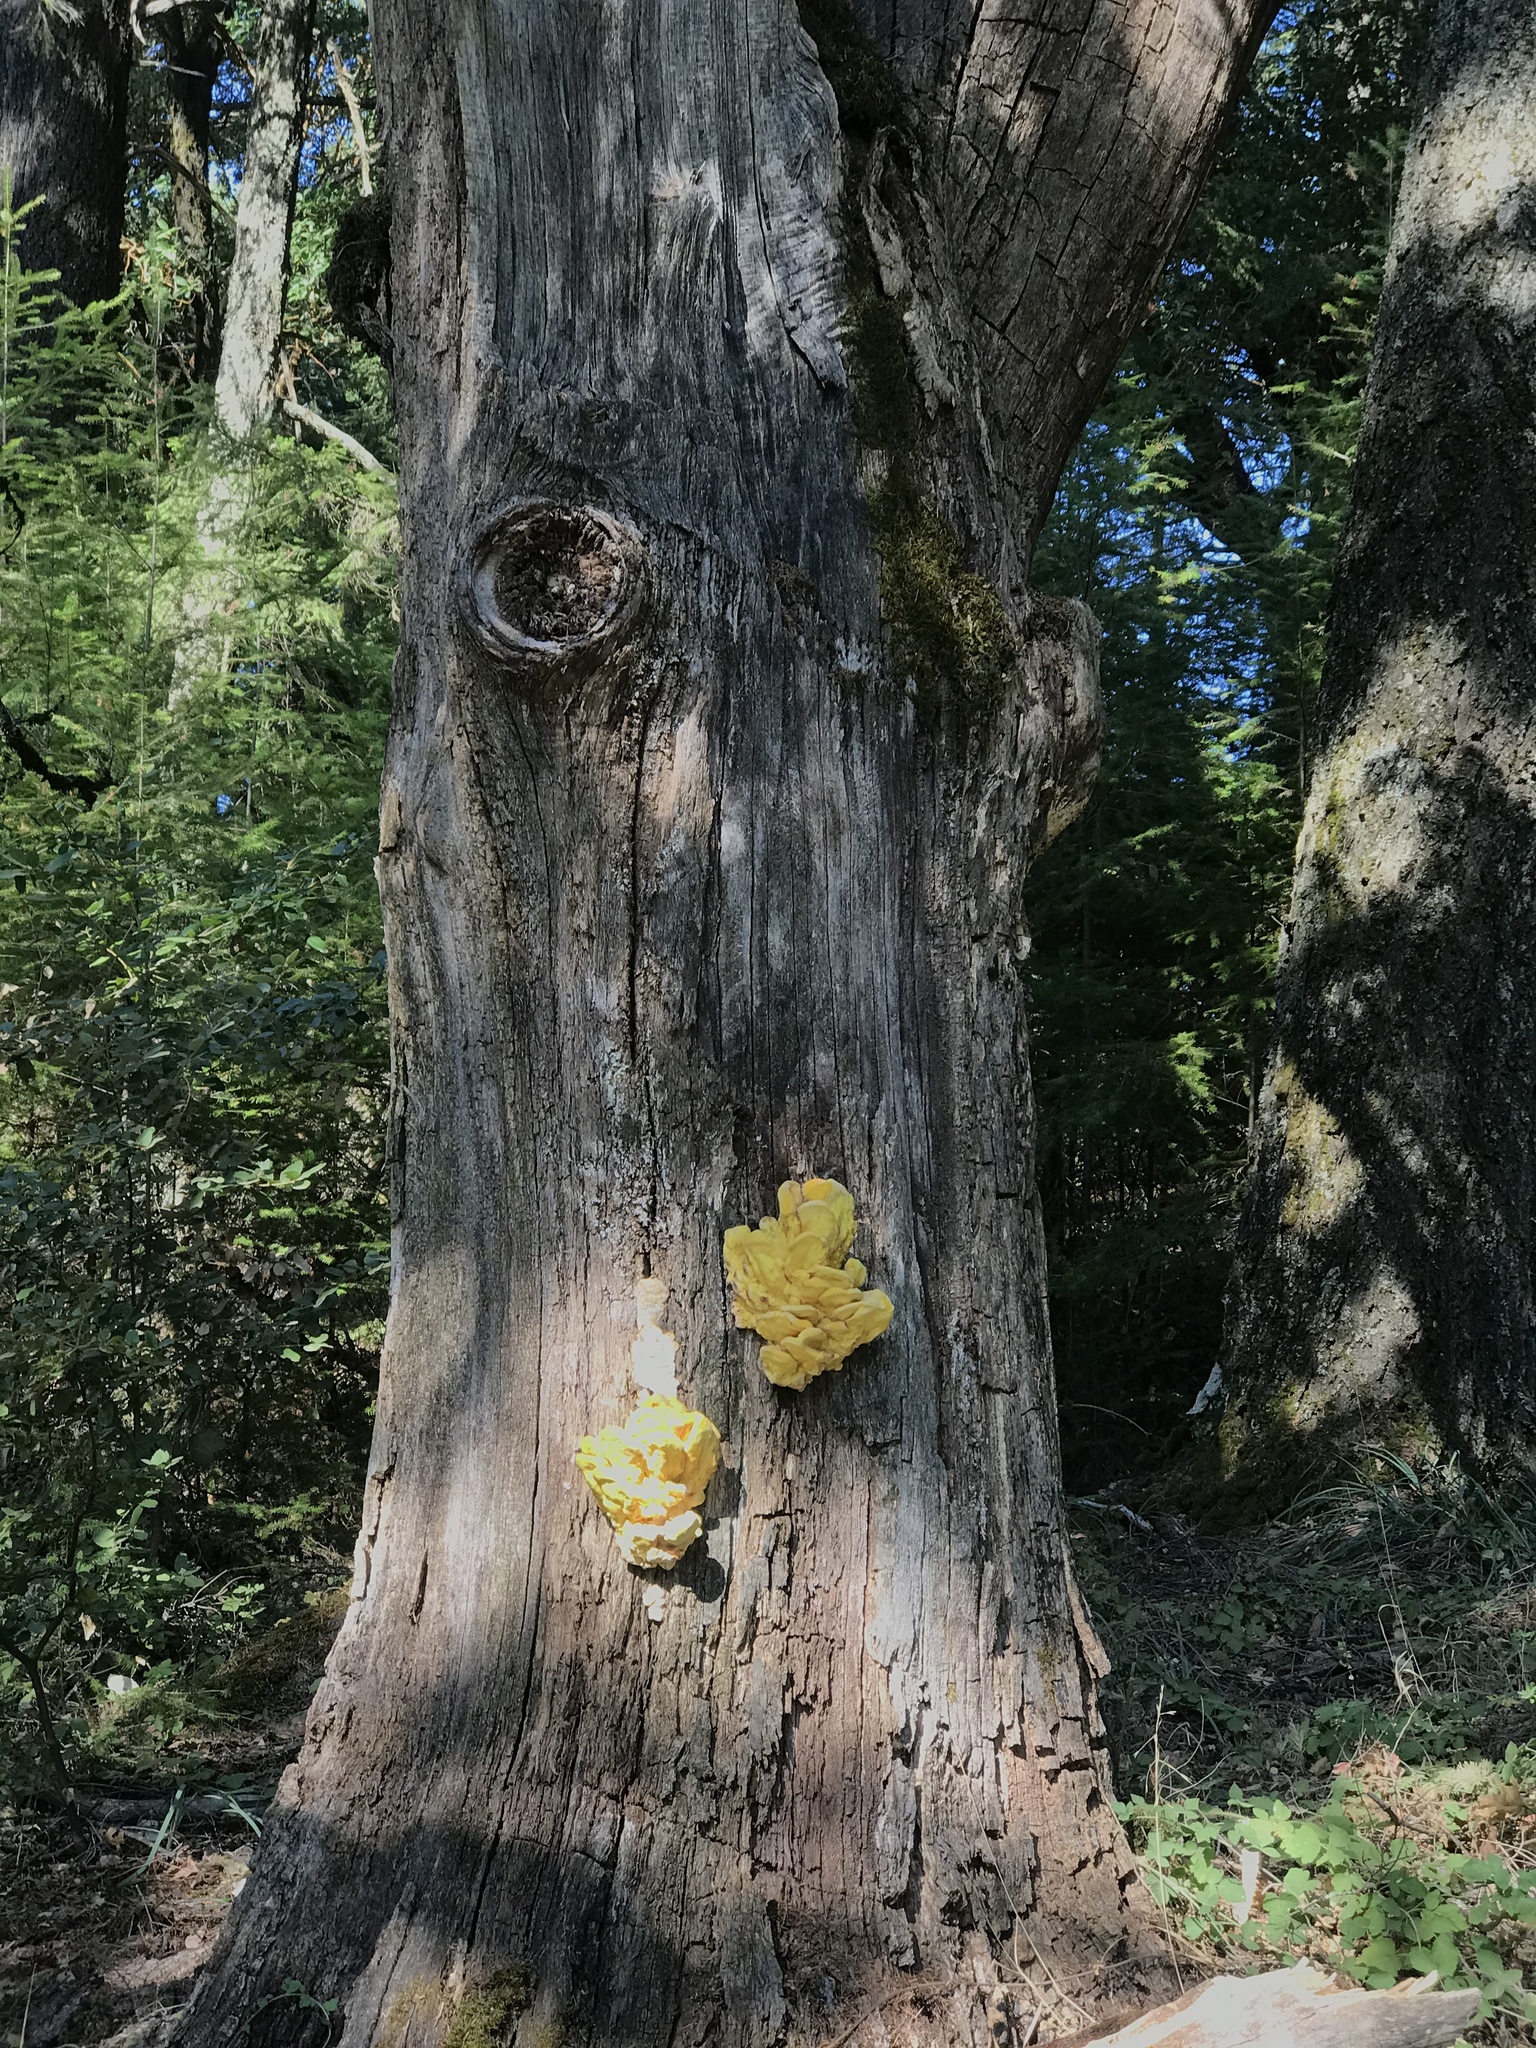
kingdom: Fungi
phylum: Basidiomycota
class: Agaricomycetes
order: Polyporales
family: Laetiporaceae
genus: Laetiporus
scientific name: Laetiporus gilbertsonii
